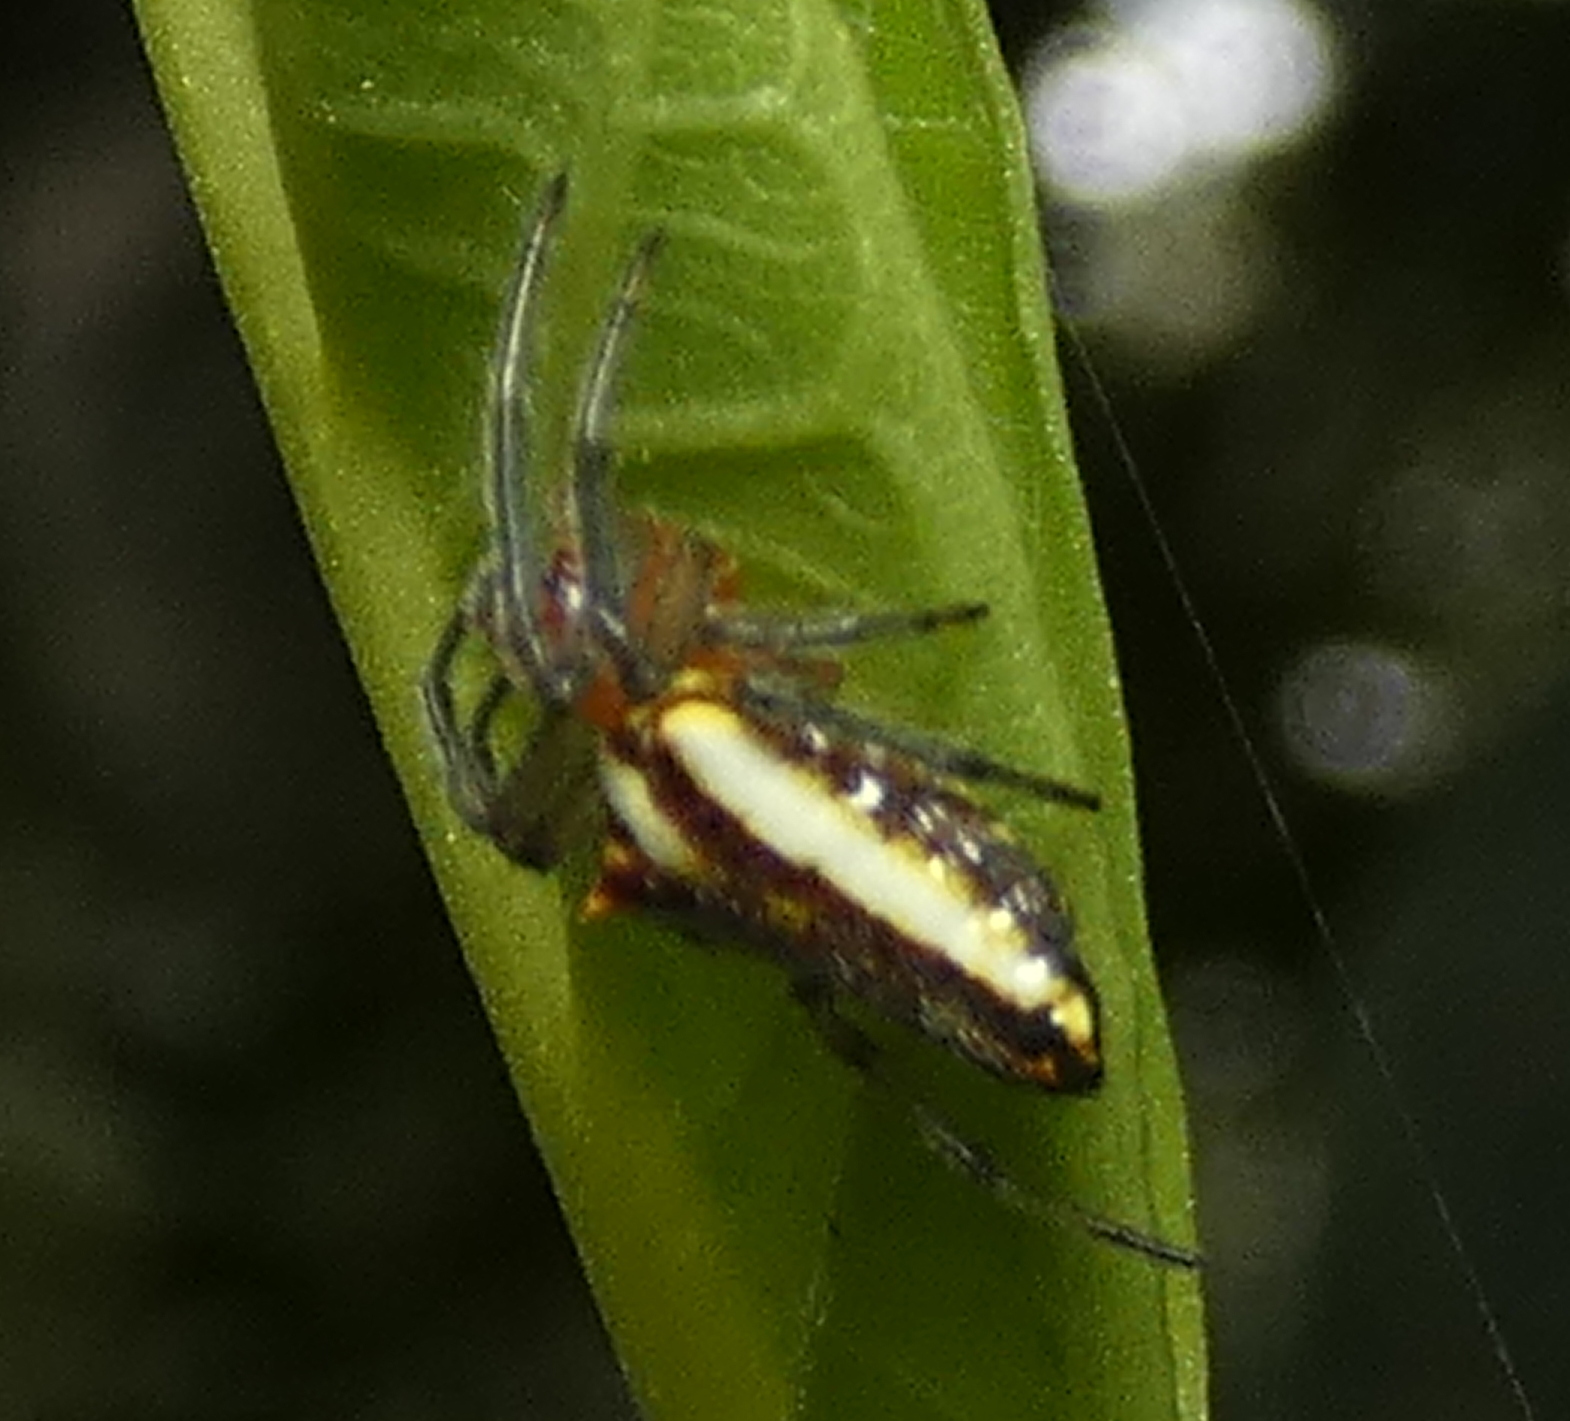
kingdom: Animalia
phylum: Arthropoda
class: Arachnida
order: Araneae
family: Araneidae
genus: Alpaida
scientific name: Alpaida bicornuta
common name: Orb weavers
